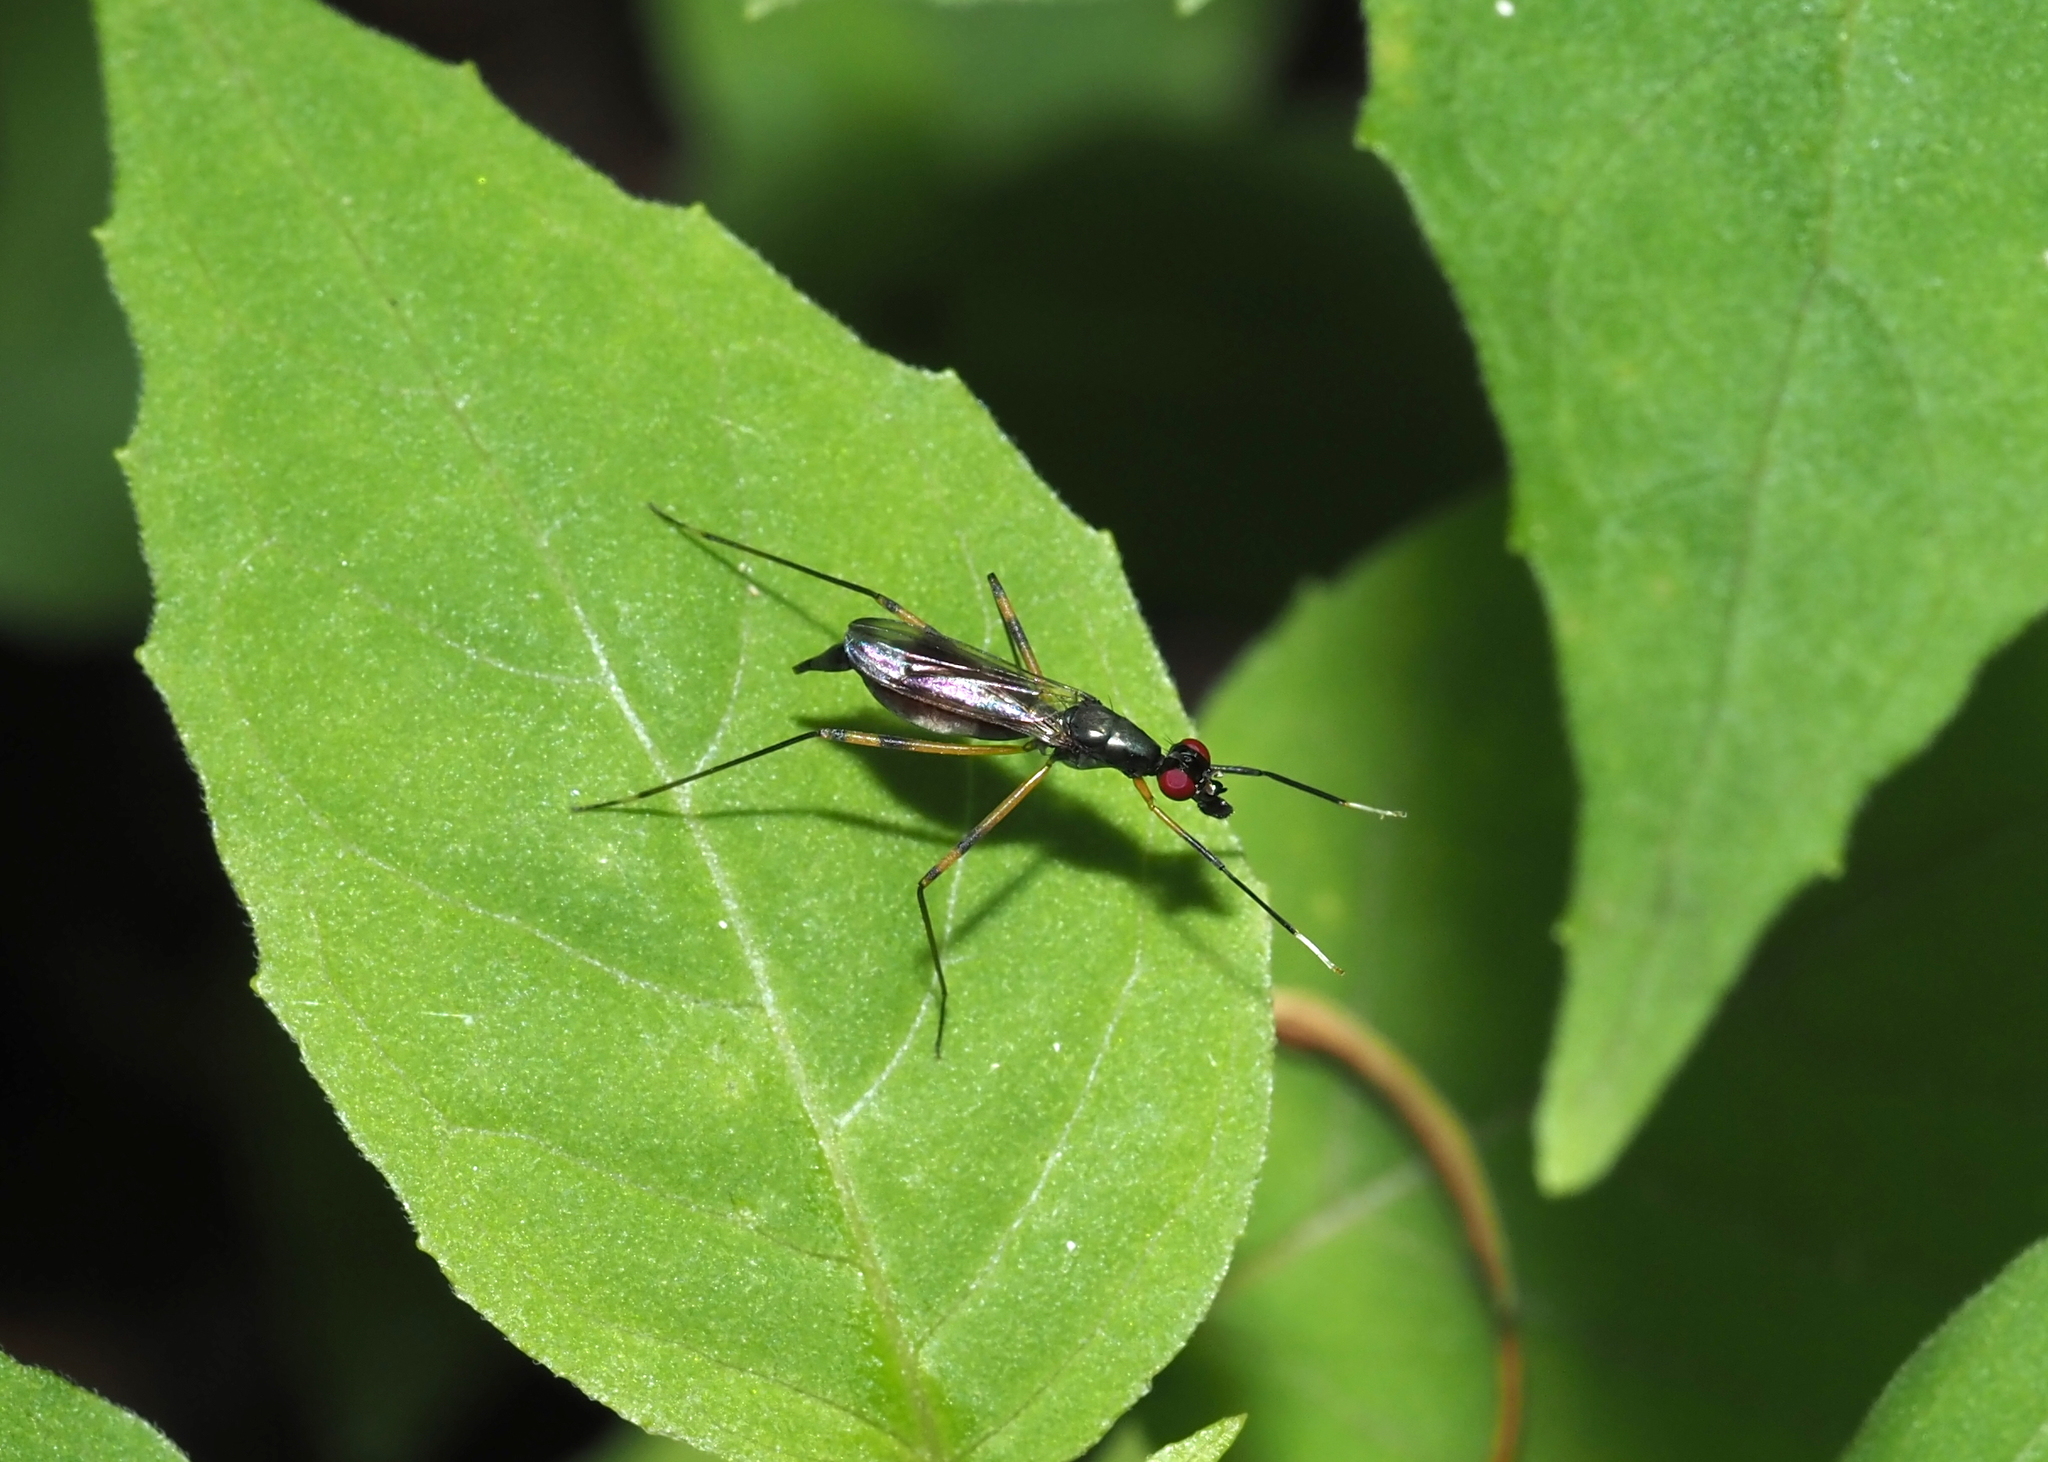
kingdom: Animalia
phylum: Arthropoda
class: Insecta
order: Diptera
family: Micropezidae
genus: Rainieria
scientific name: Rainieria antennaepes
